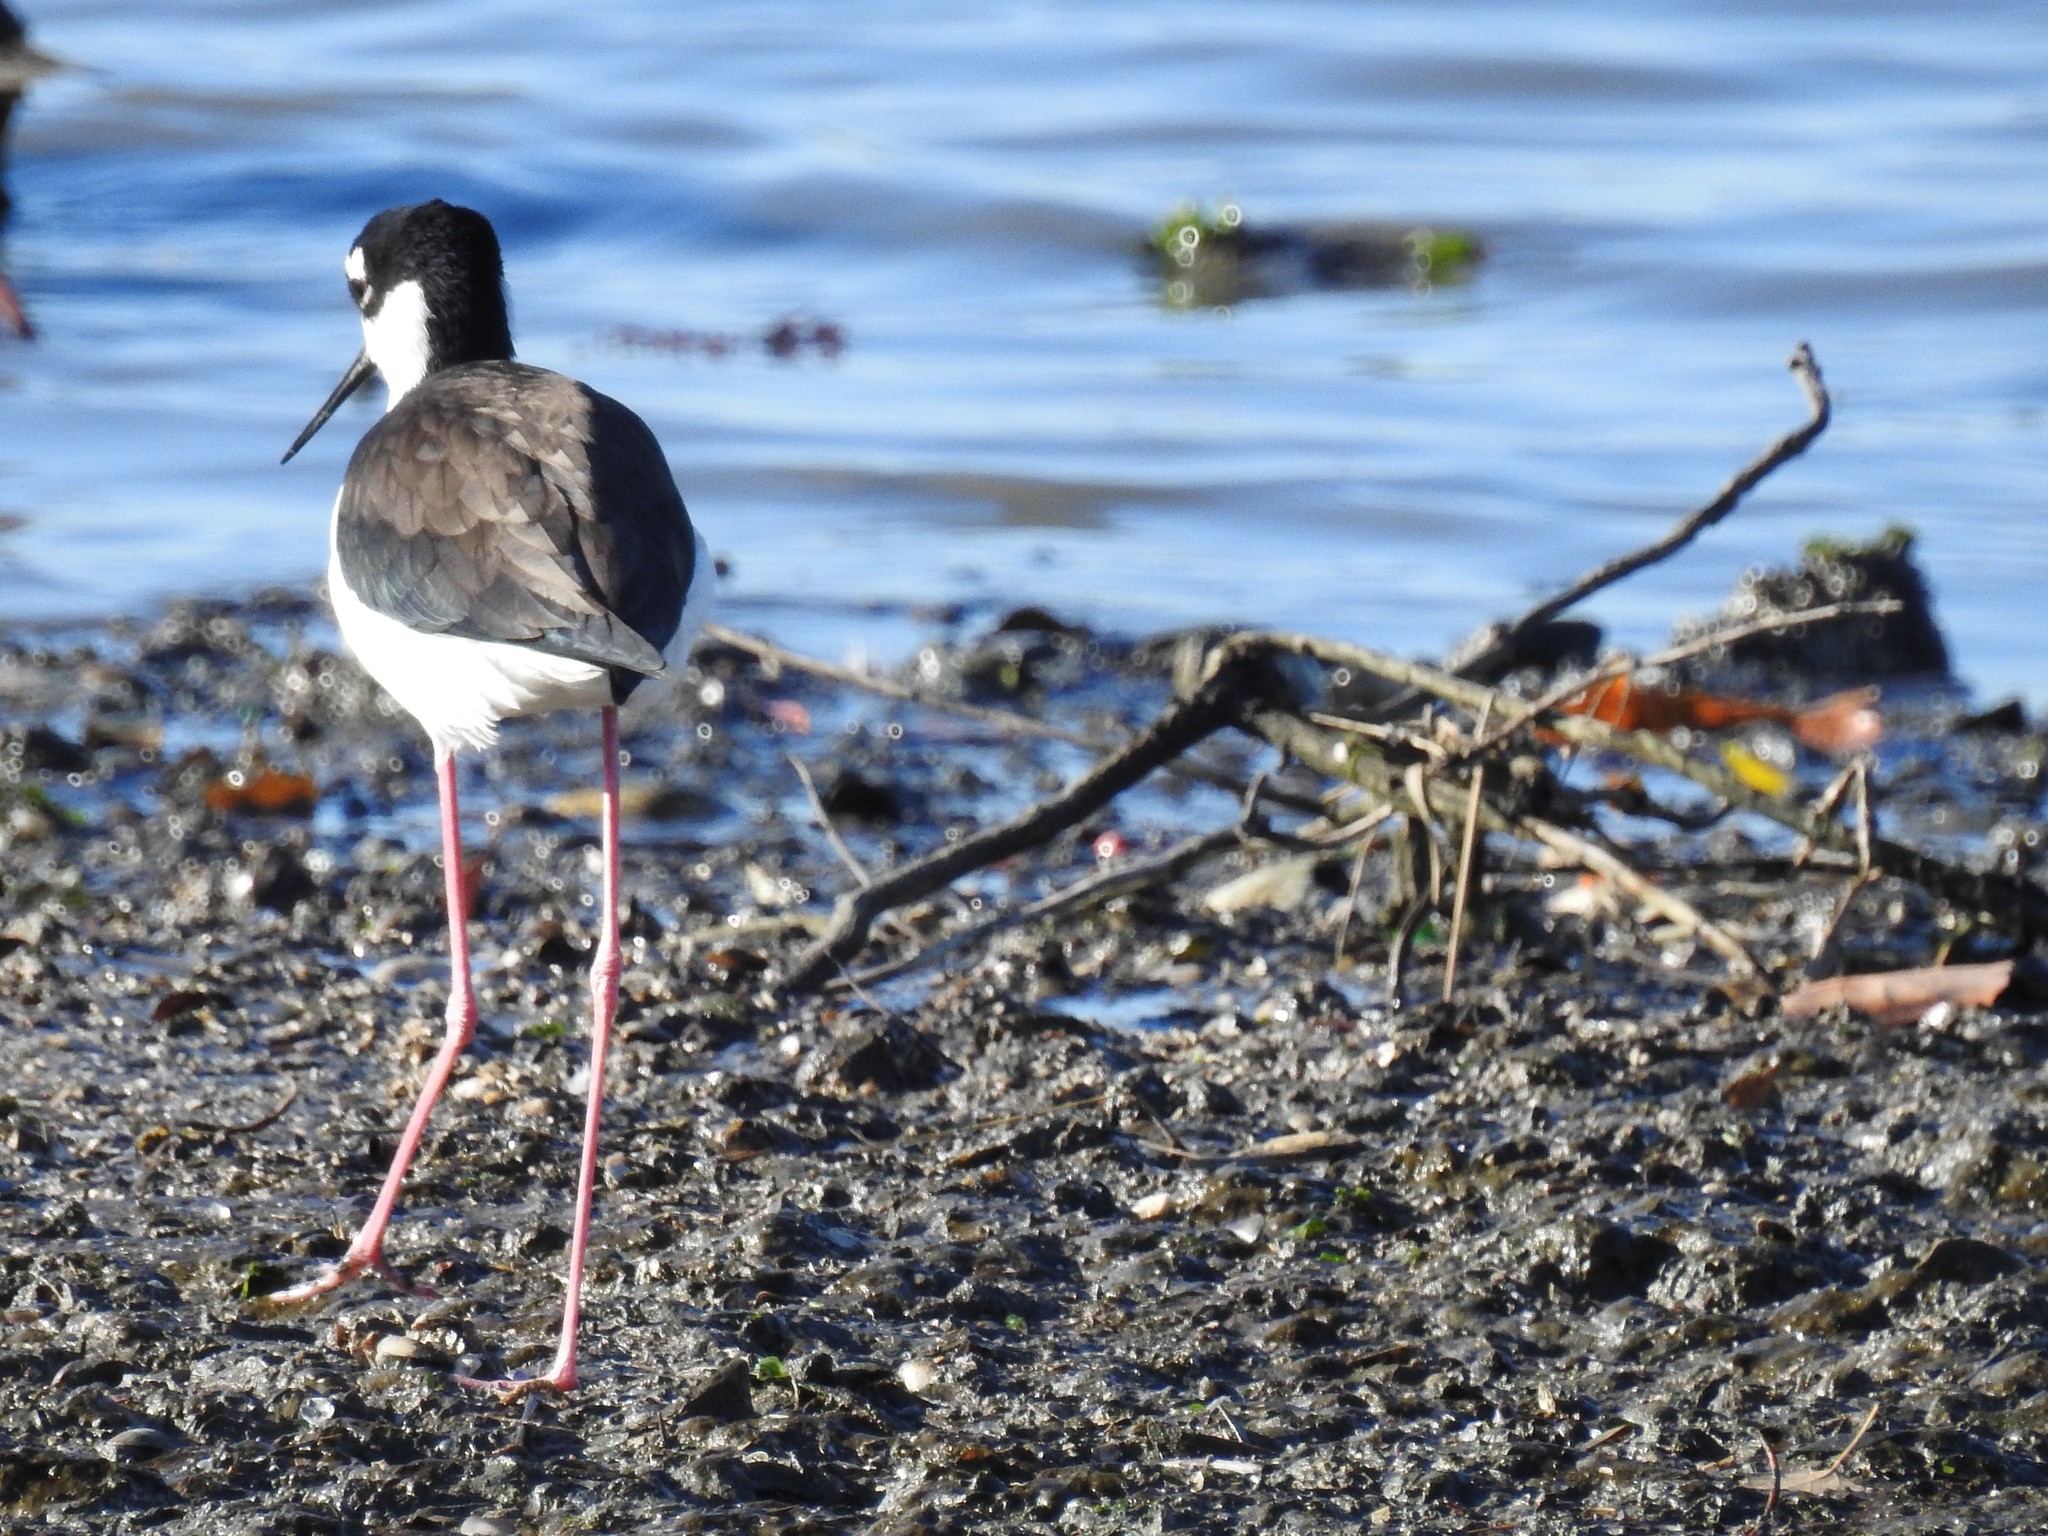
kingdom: Animalia
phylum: Chordata
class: Aves
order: Charadriiformes
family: Recurvirostridae
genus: Himantopus
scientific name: Himantopus mexicanus
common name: Black-necked stilt
